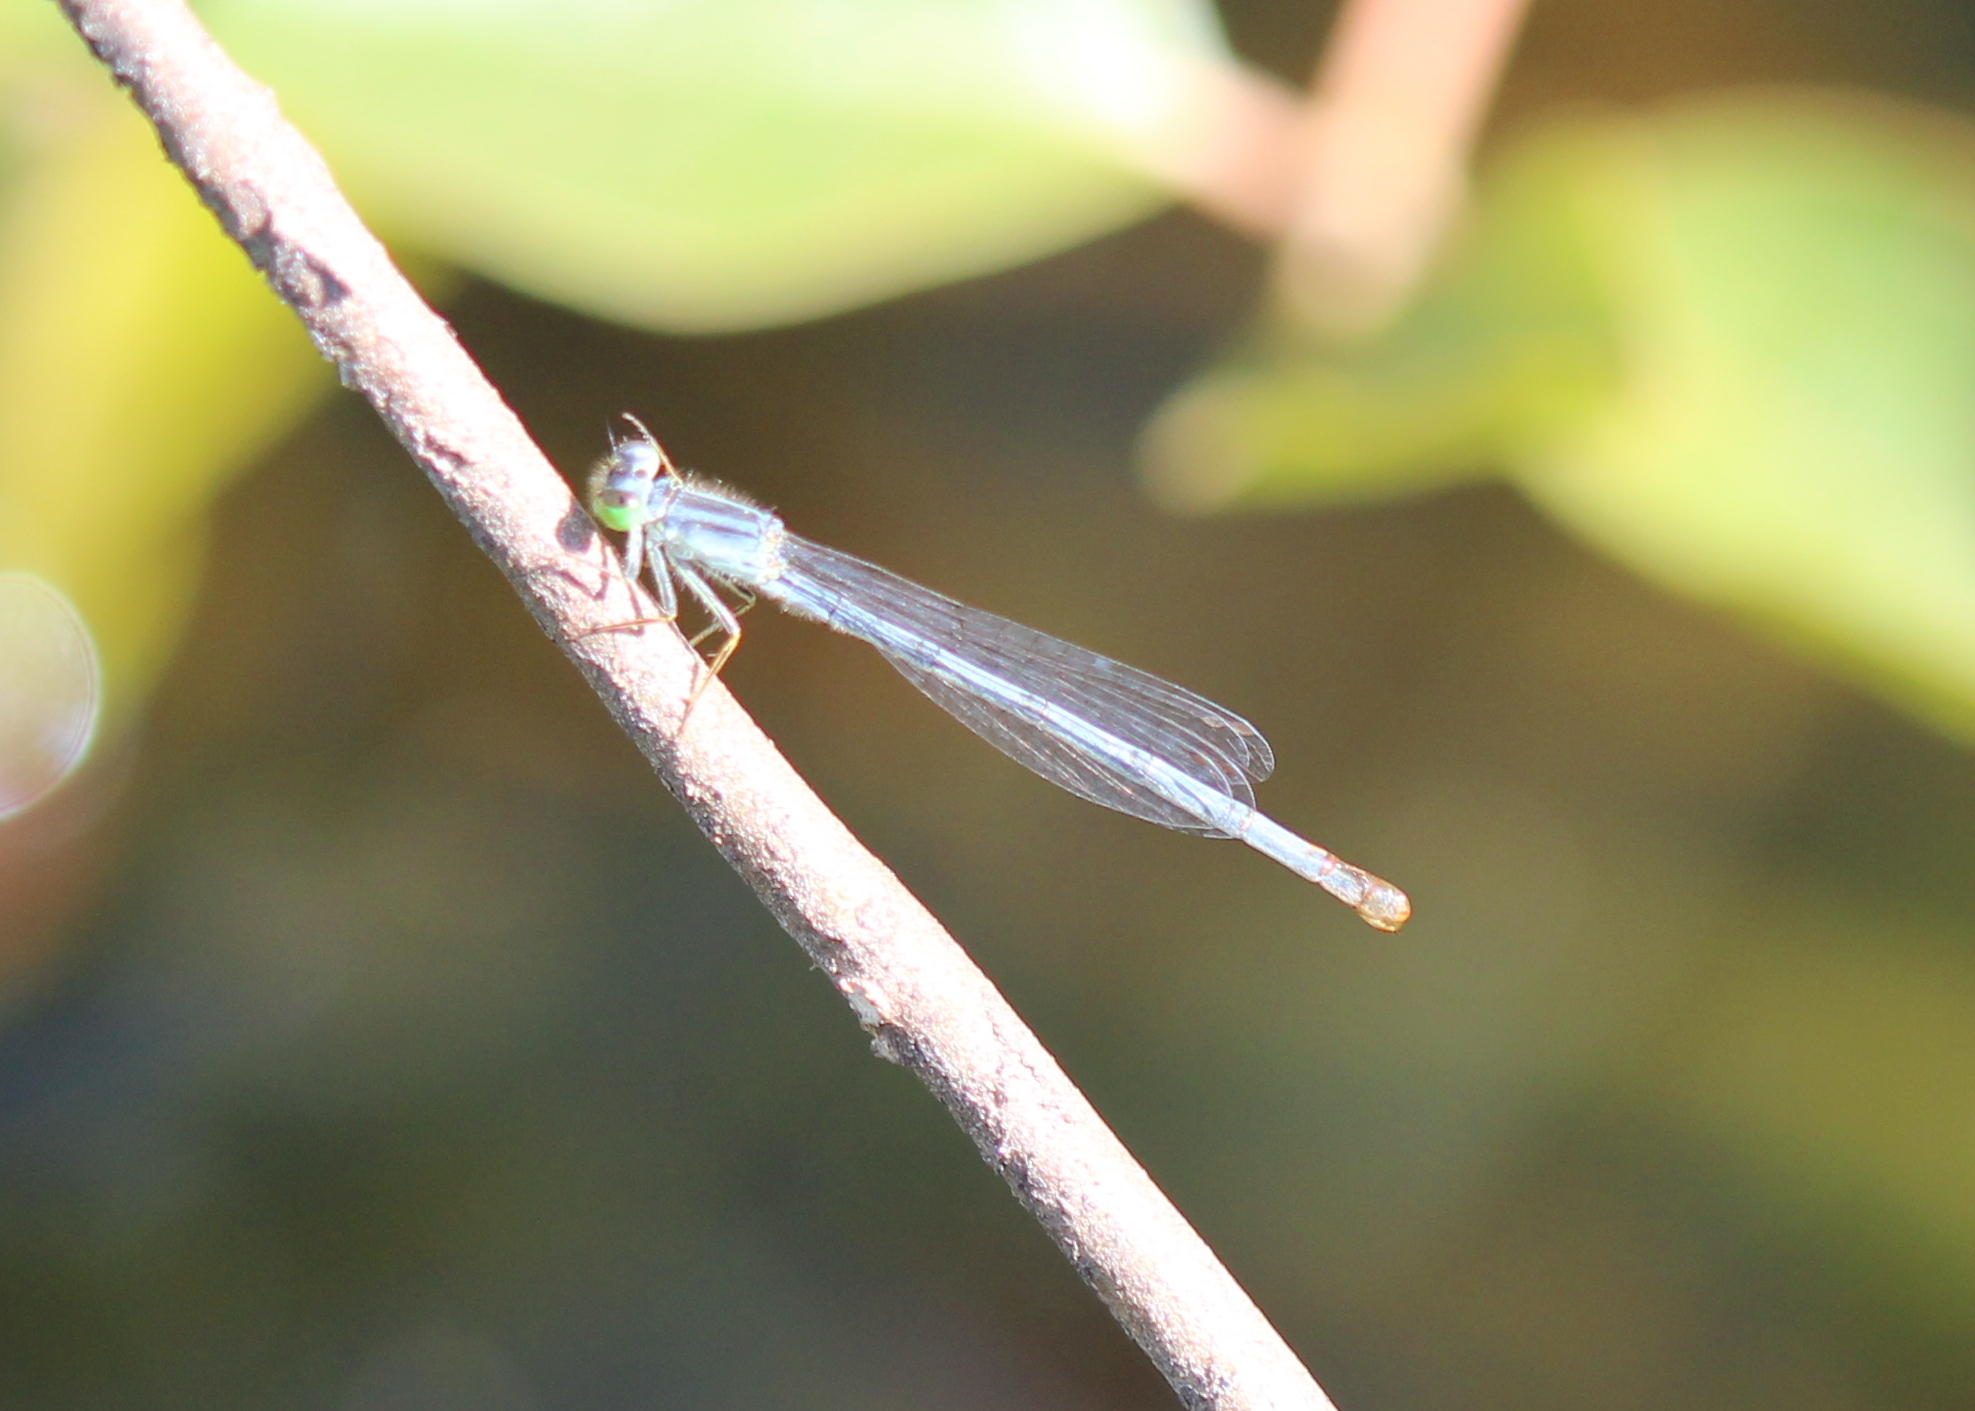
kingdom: Animalia
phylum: Arthropoda
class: Insecta
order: Odonata
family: Coenagrionidae
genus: Ischnura
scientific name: Ischnura verticalis
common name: Eastern forktail
